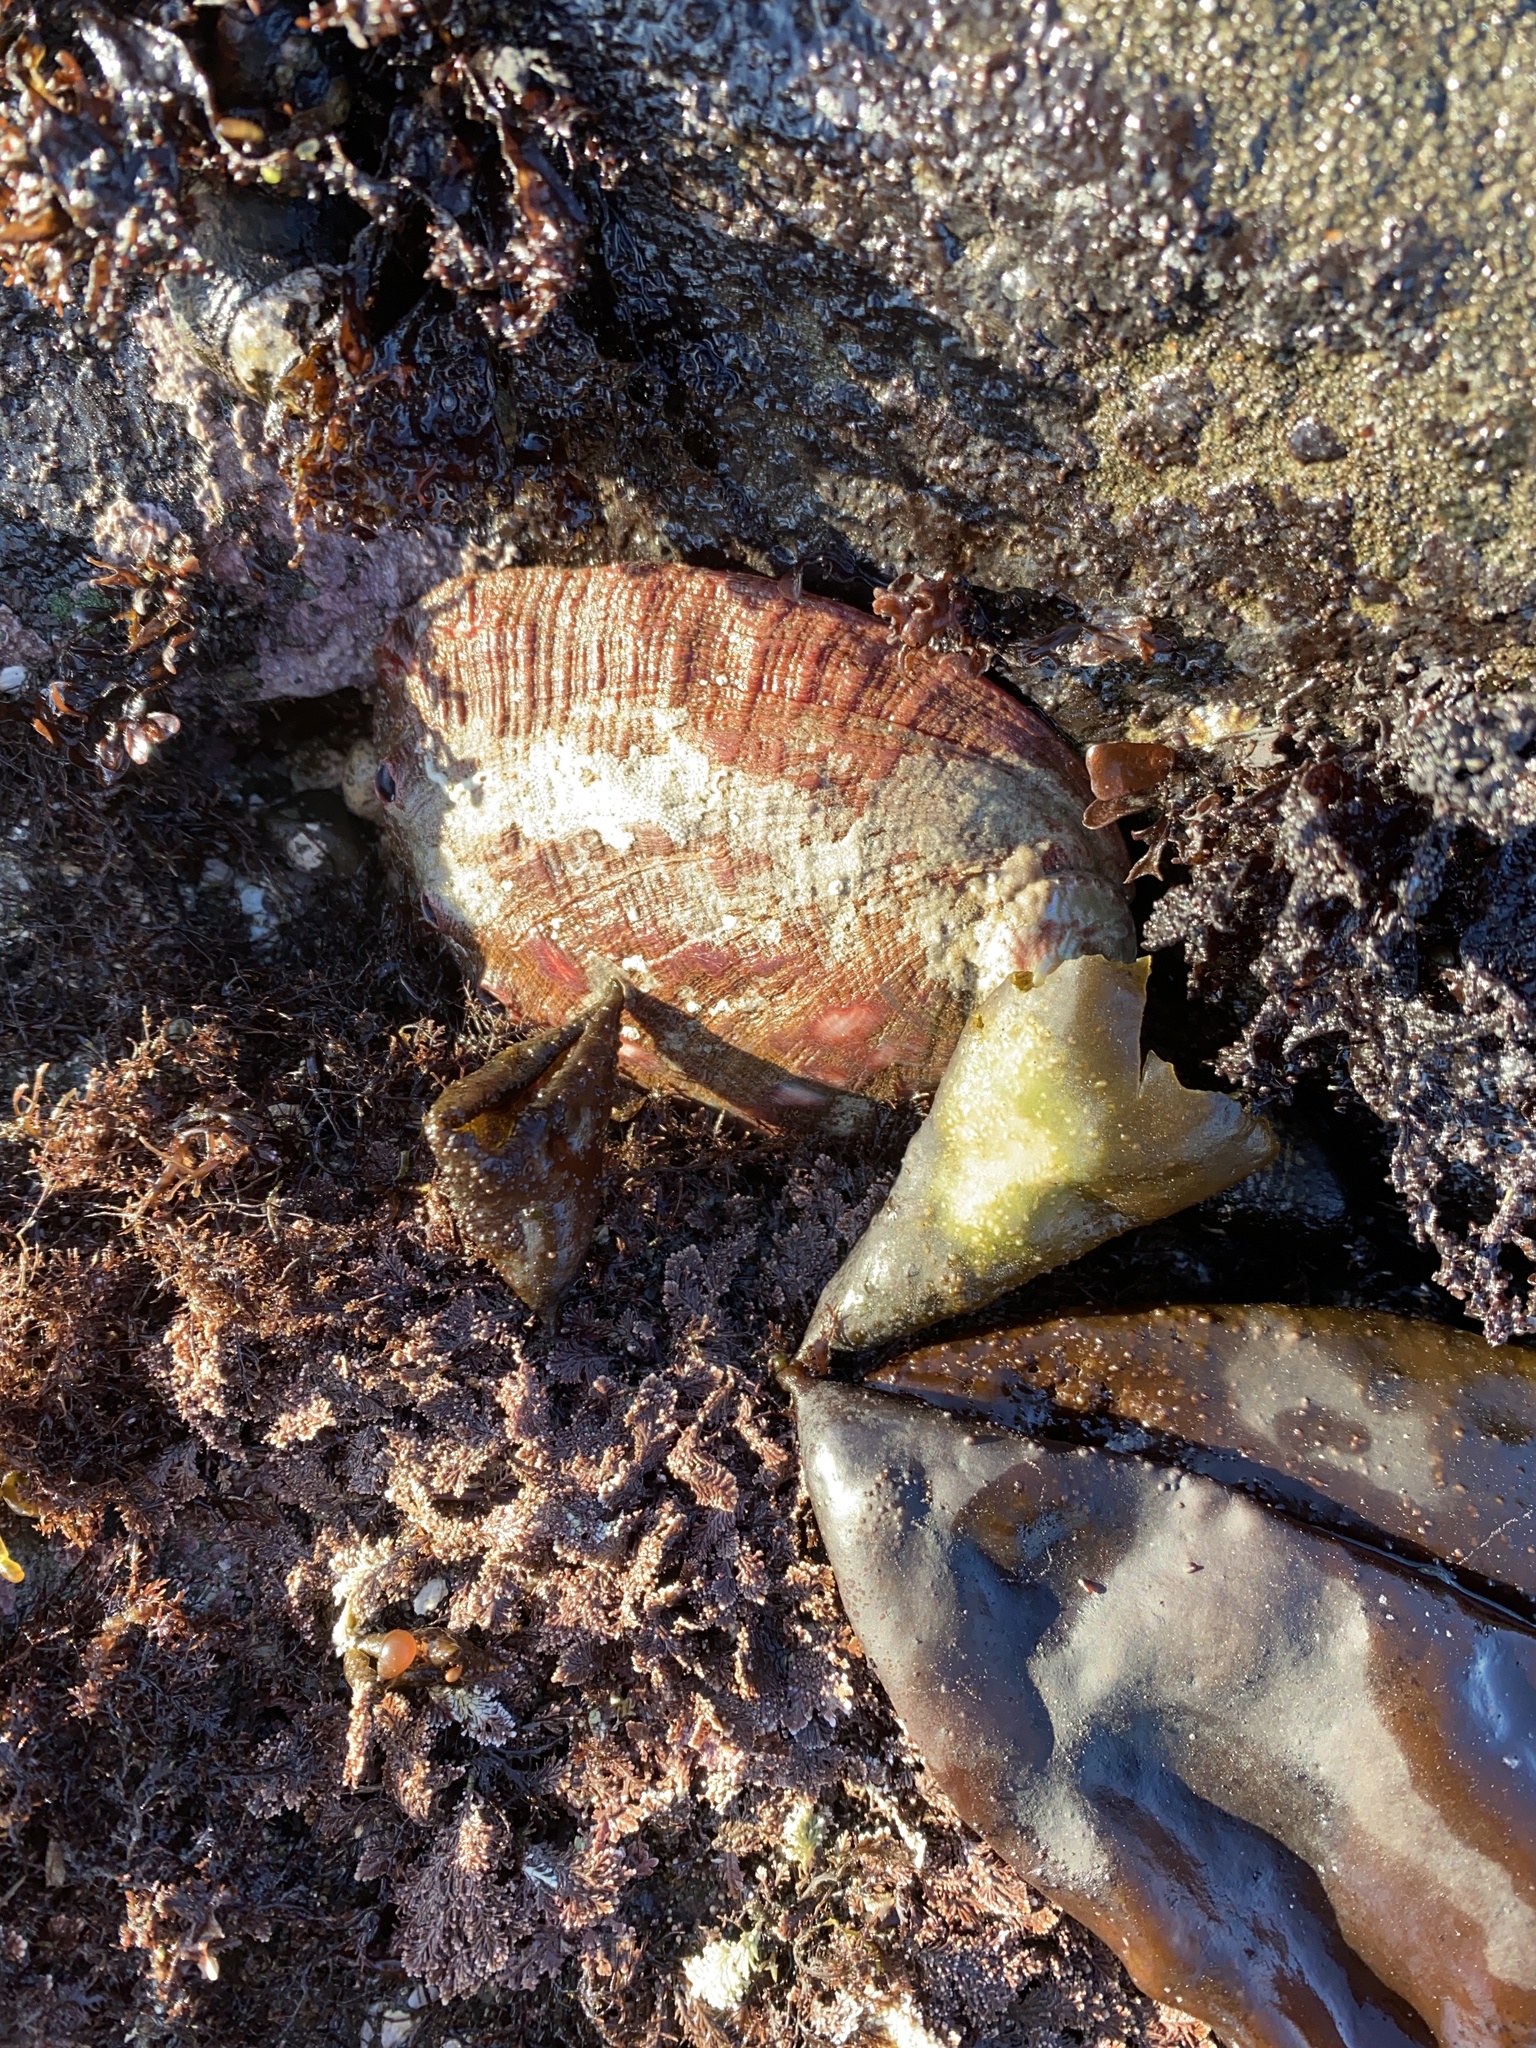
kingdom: Animalia
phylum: Mollusca
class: Gastropoda
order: Lepetellida
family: Haliotidae
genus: Haliotis
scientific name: Haliotis rufescens
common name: Red abalone
